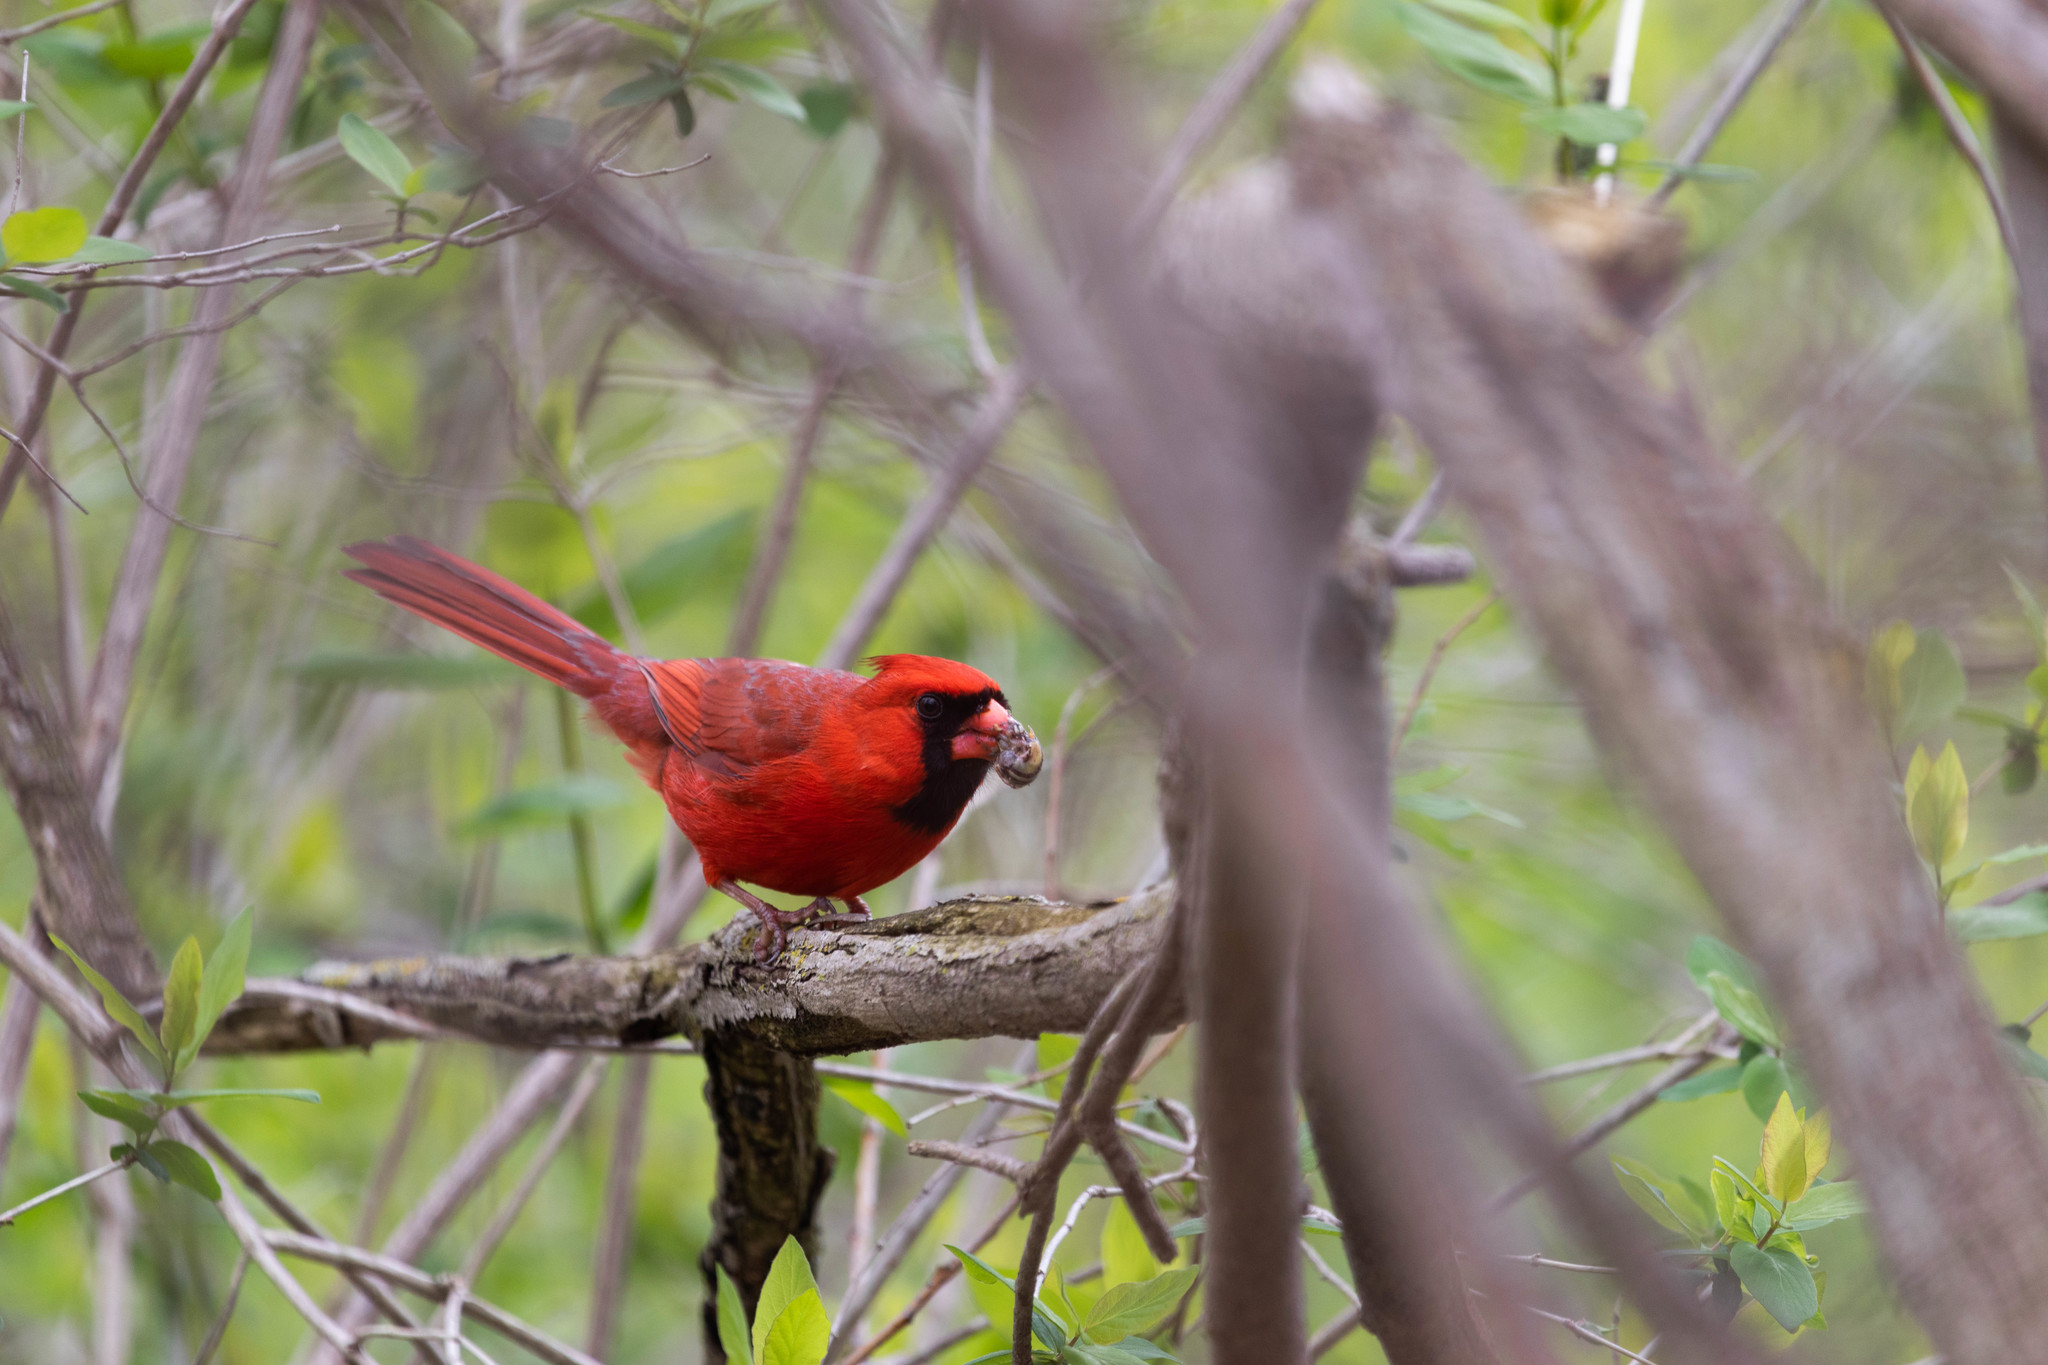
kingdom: Animalia
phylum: Chordata
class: Aves
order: Passeriformes
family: Cardinalidae
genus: Cardinalis
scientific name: Cardinalis cardinalis
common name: Northern cardinal
